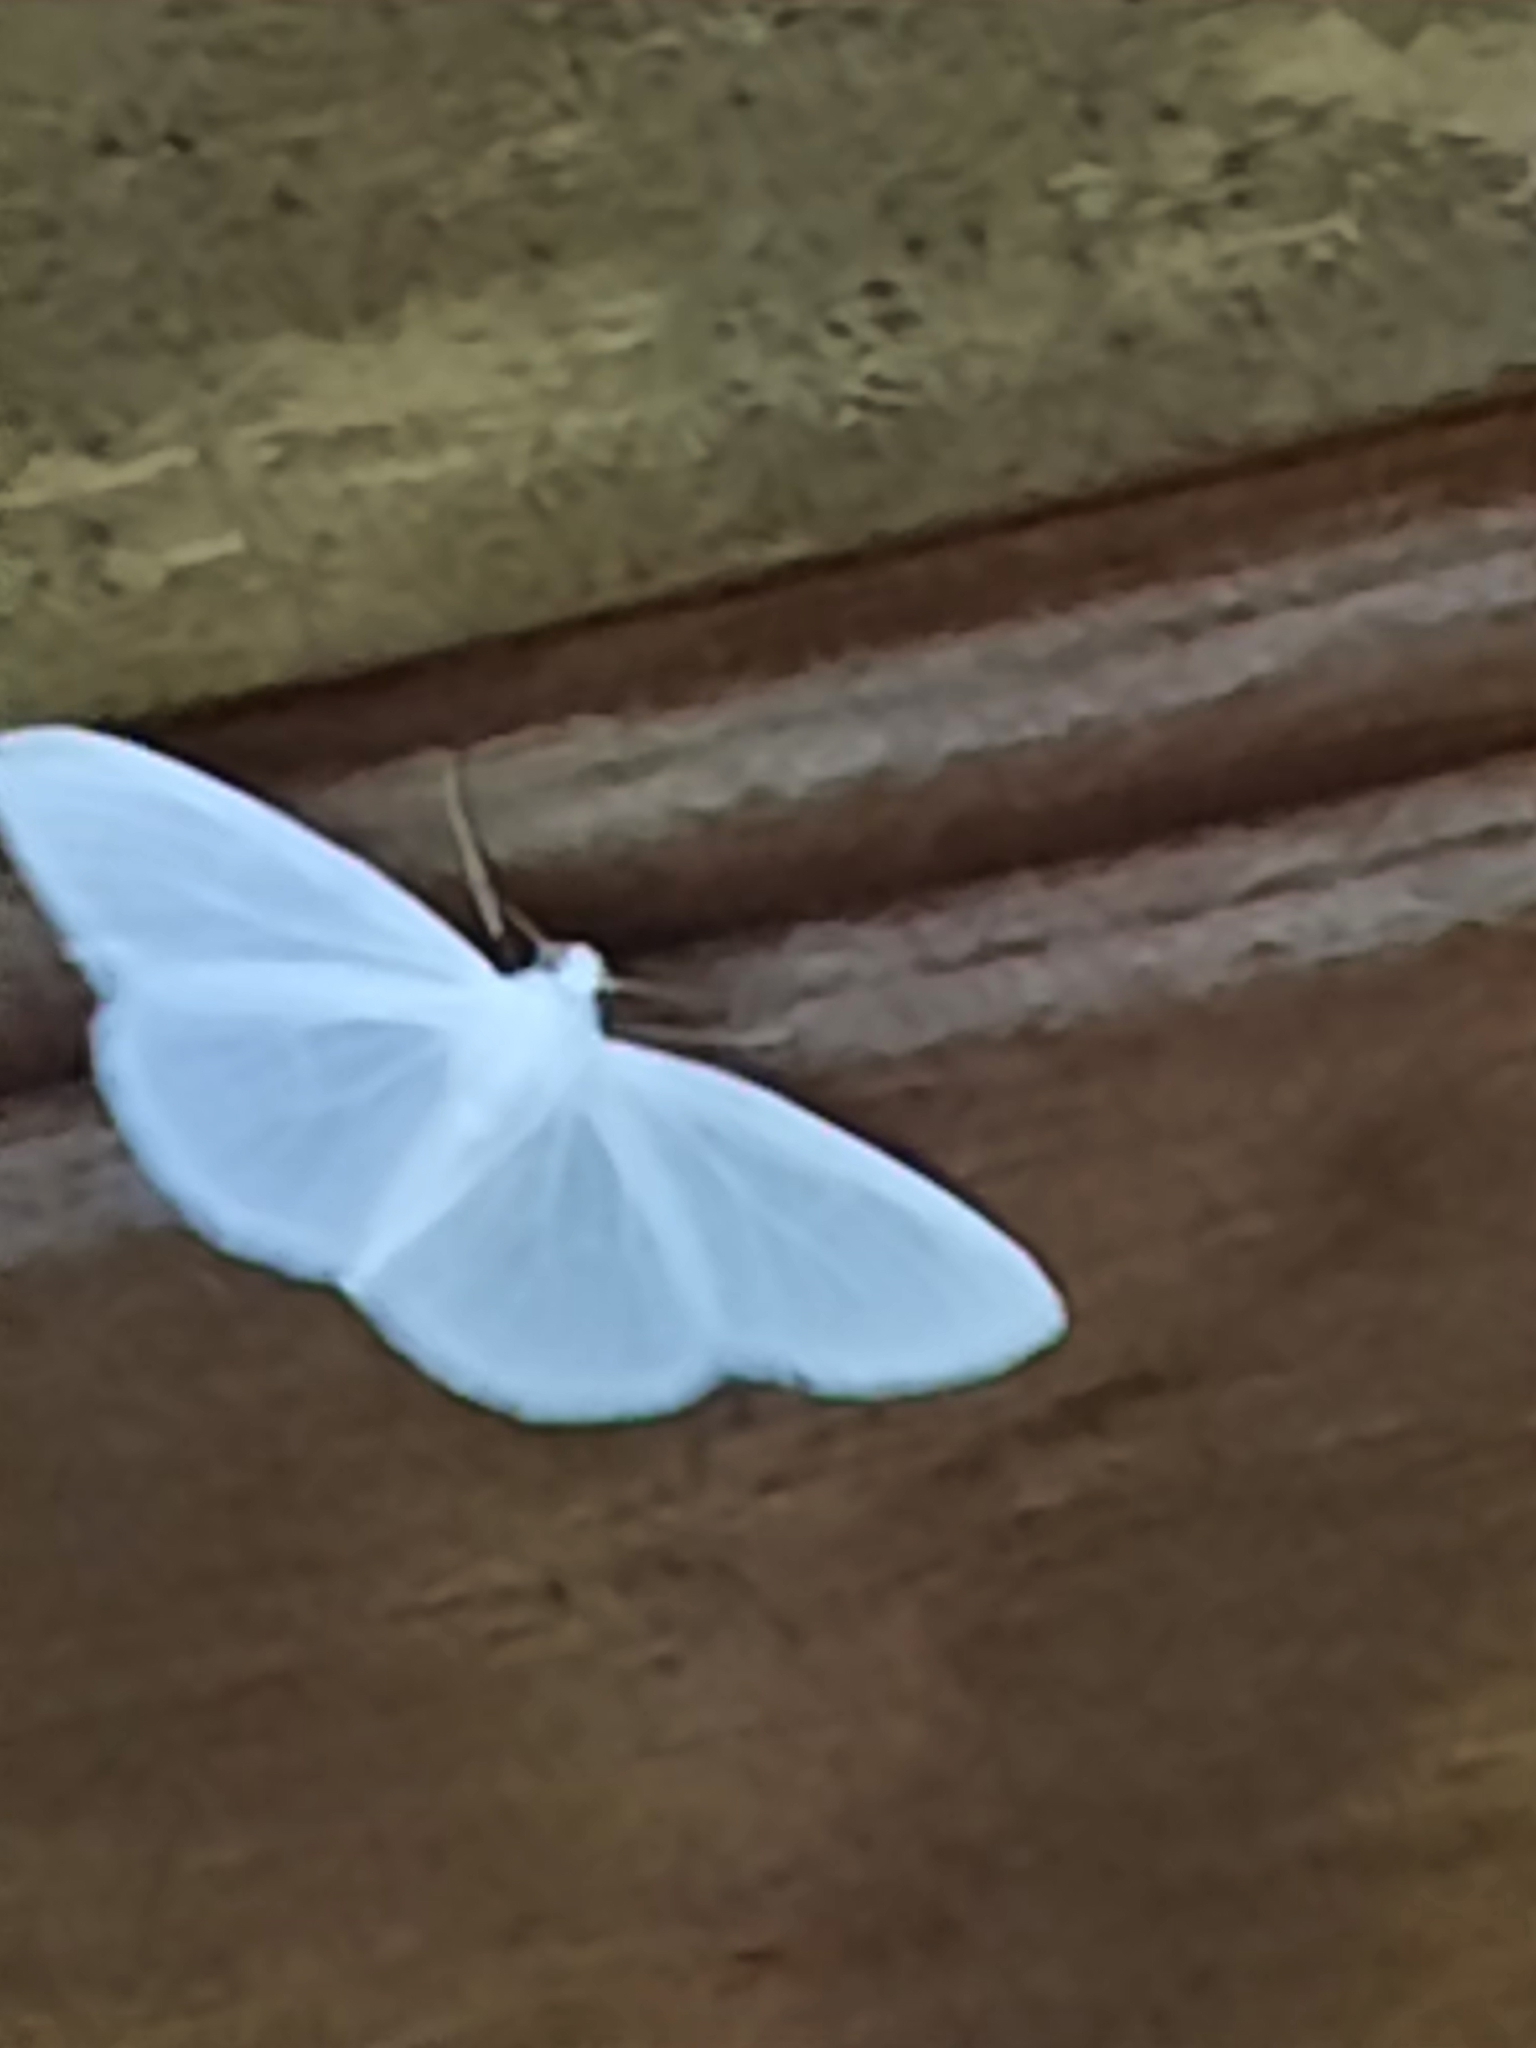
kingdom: Animalia
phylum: Arthropoda
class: Insecta
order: Lepidoptera
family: Geometridae
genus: Lomographa
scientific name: Lomographa vestaliata
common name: White spring moth
